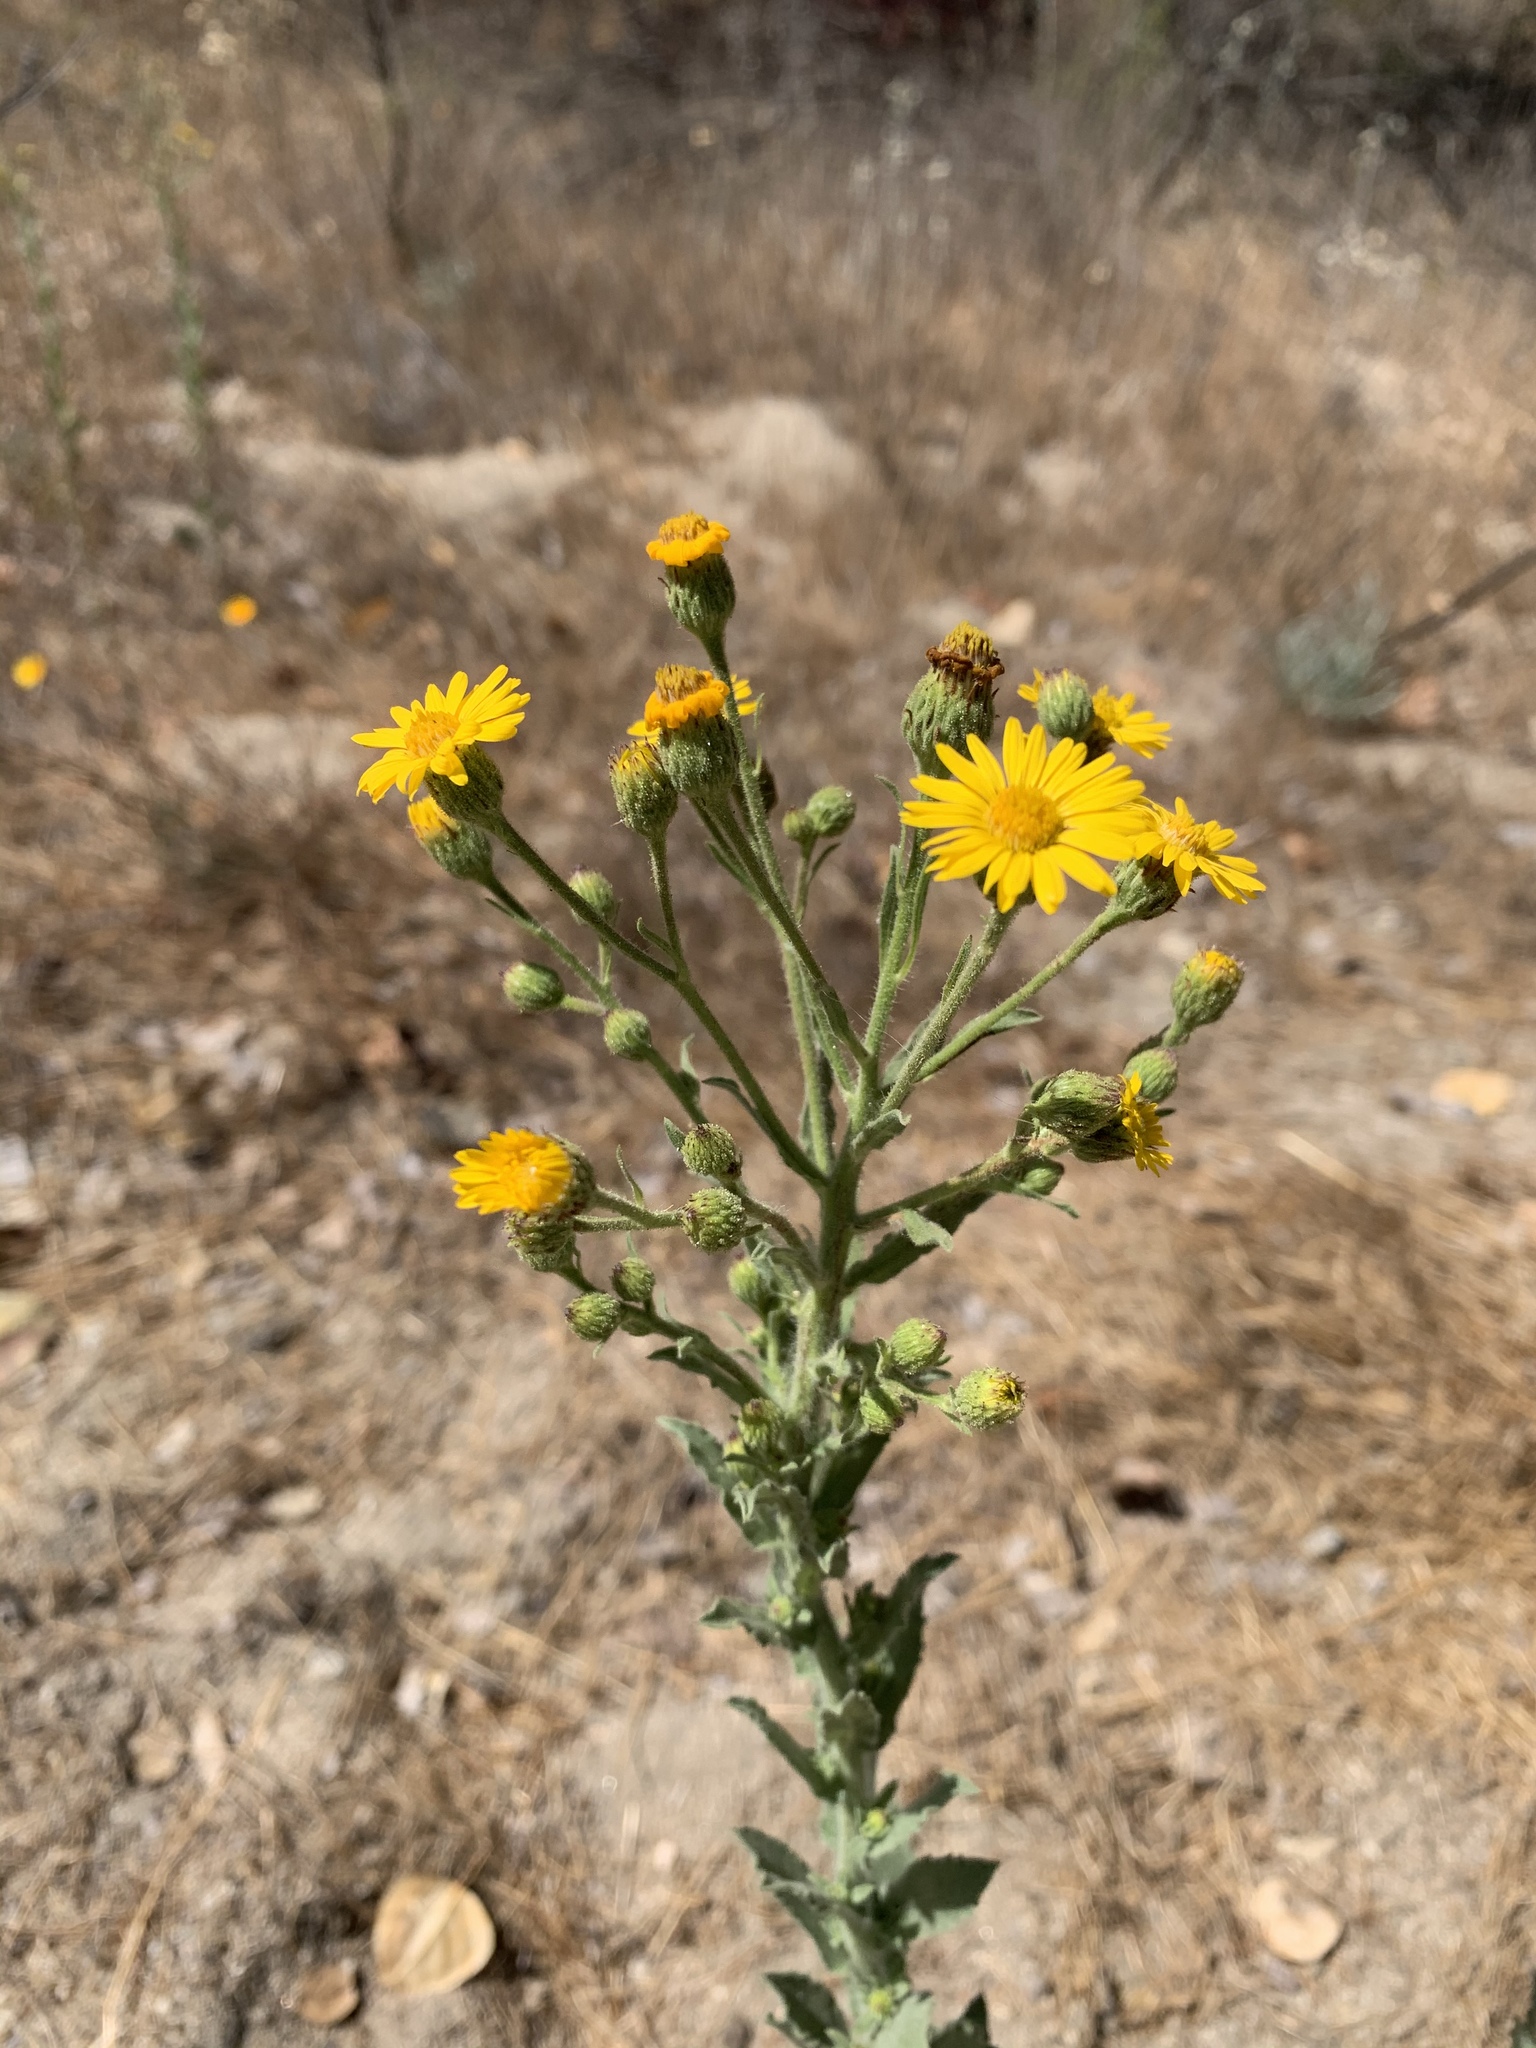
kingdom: Plantae
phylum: Tracheophyta
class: Magnoliopsida
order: Asterales
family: Asteraceae
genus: Heterotheca
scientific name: Heterotheca grandiflora
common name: Telegraphweed
